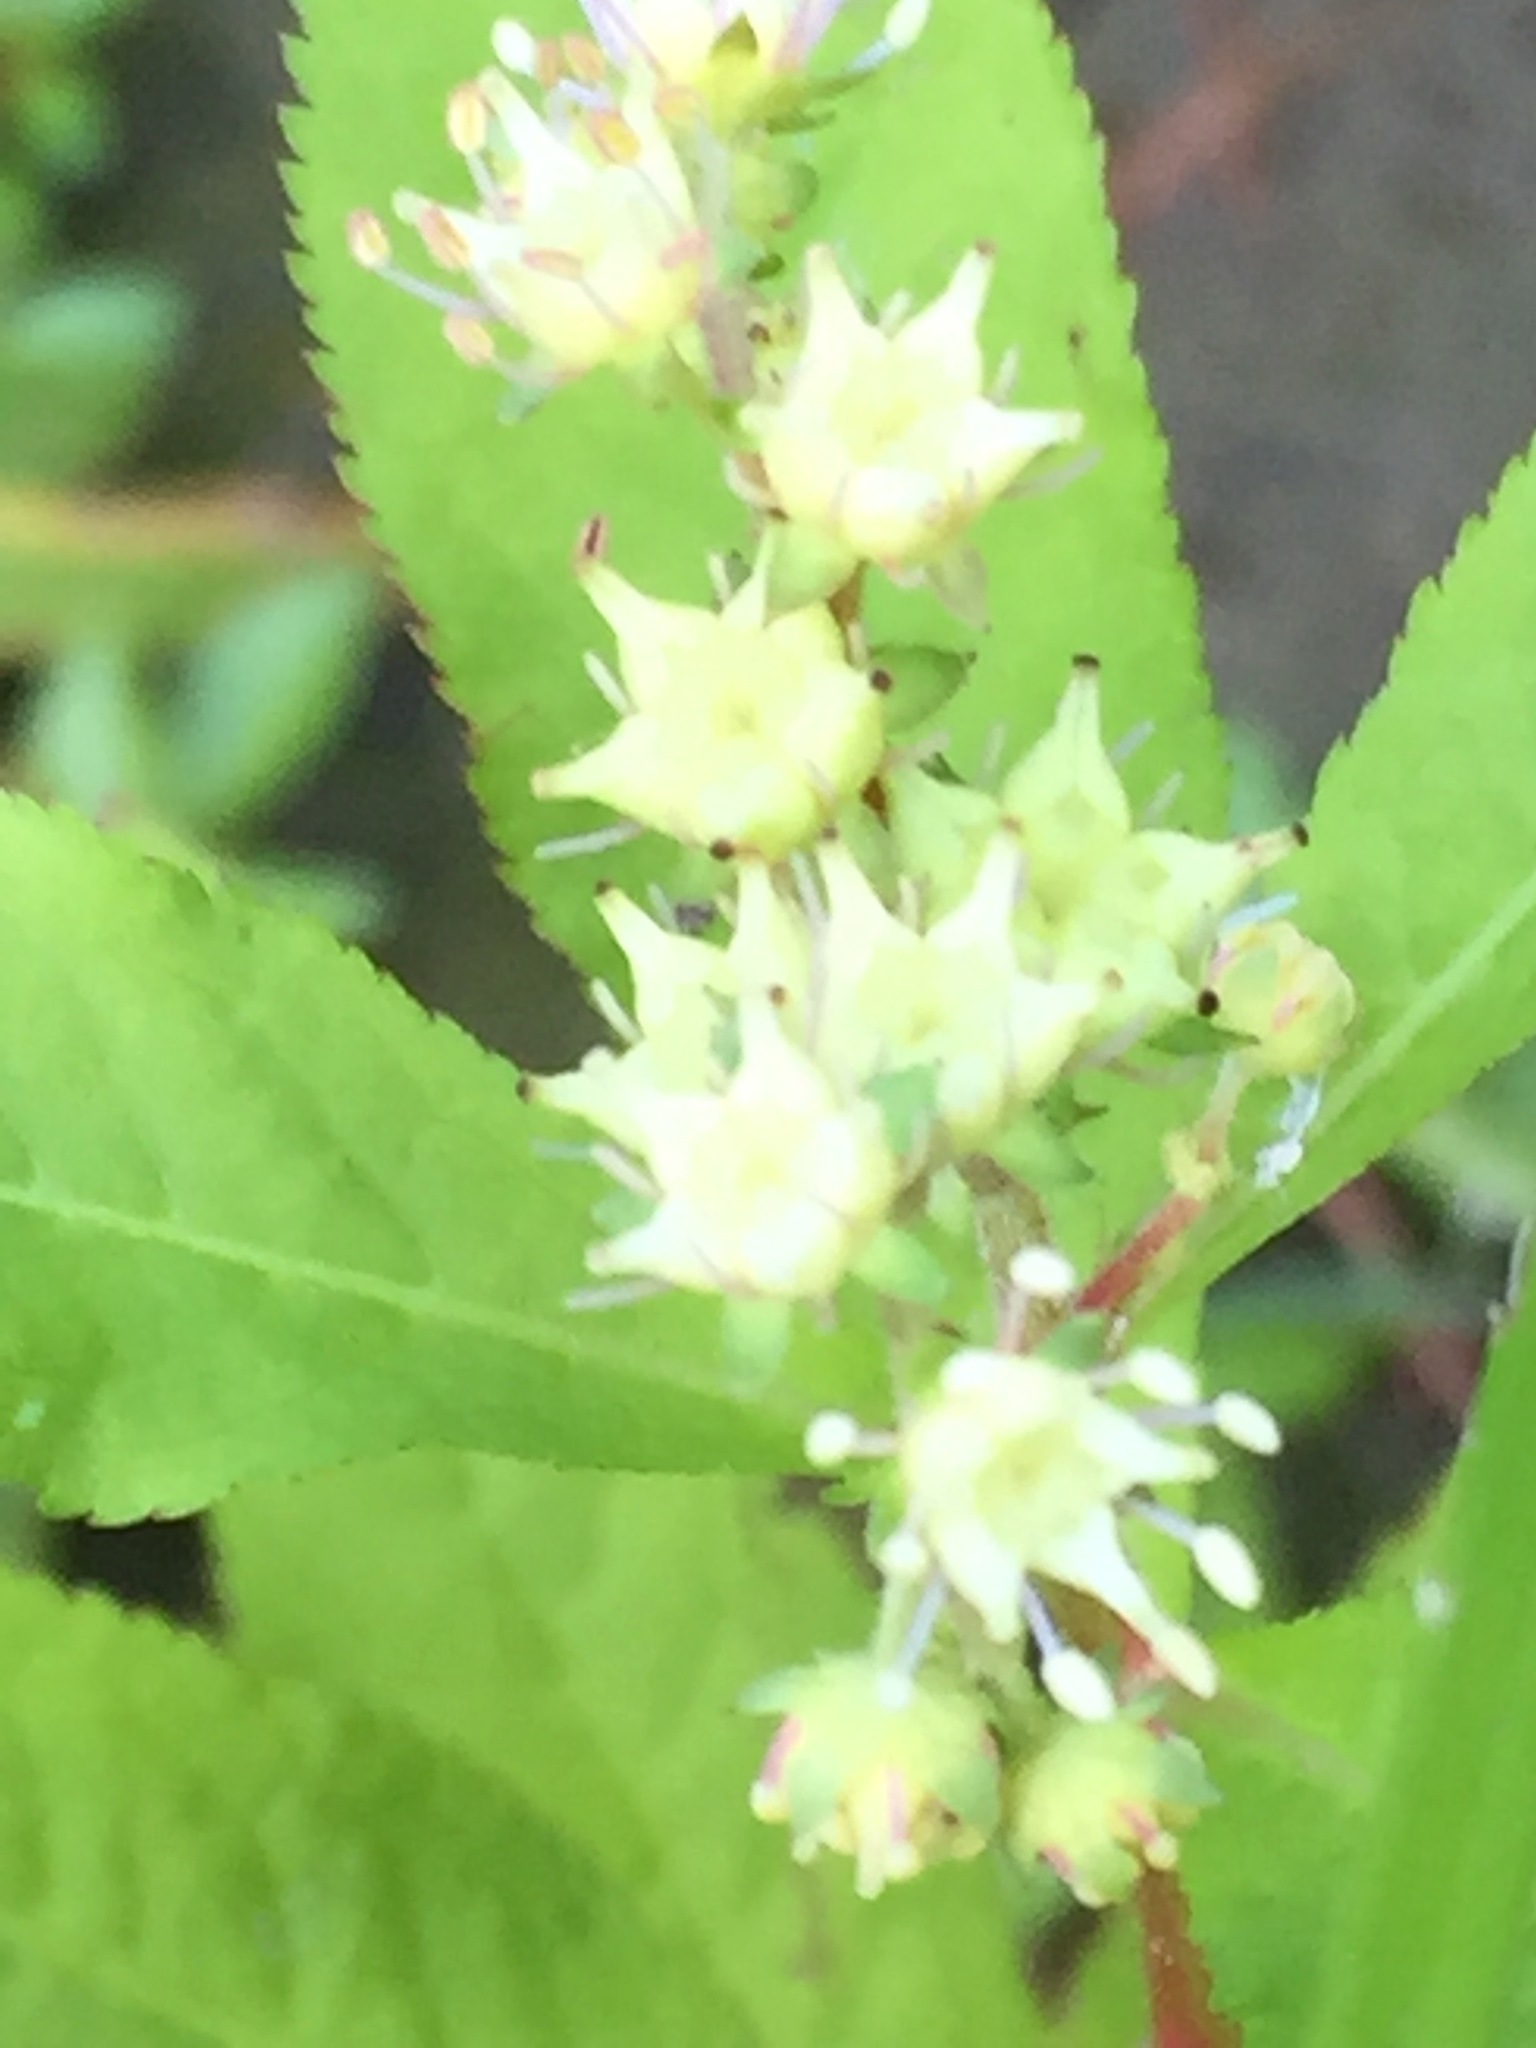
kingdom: Plantae
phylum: Tracheophyta
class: Magnoliopsida
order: Saxifragales
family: Penthoraceae
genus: Penthorum
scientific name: Penthorum sedoides
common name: Ditch stonecrop
